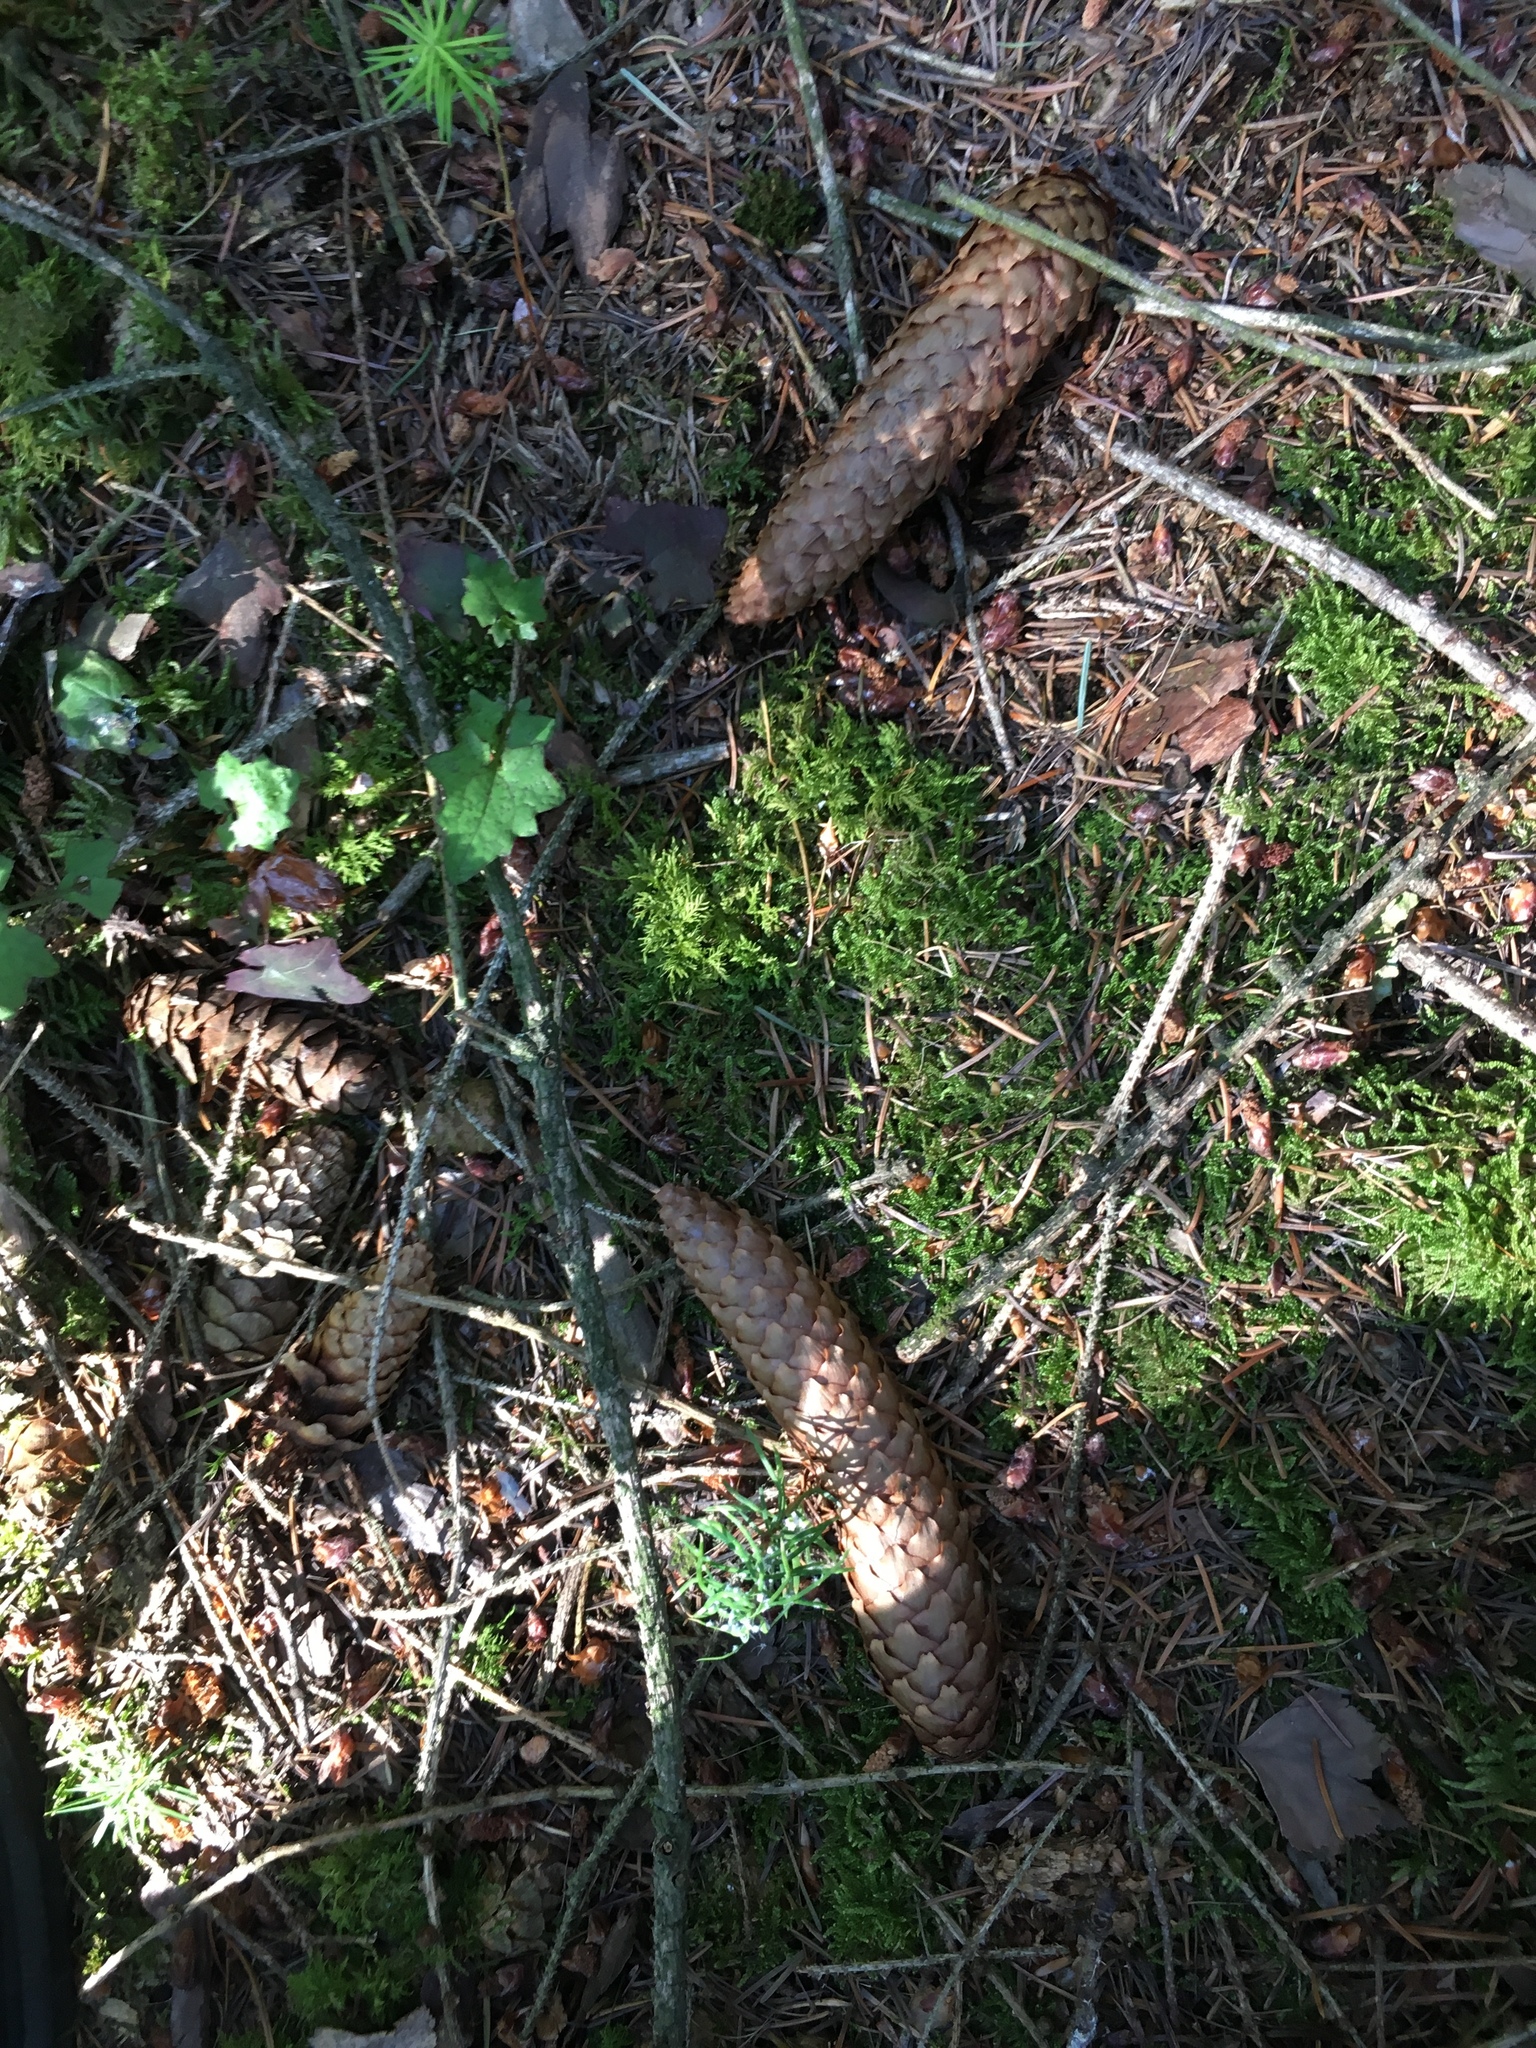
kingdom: Plantae
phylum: Tracheophyta
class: Pinopsida
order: Pinales
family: Pinaceae
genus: Picea
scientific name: Picea abies
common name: Norway spruce
